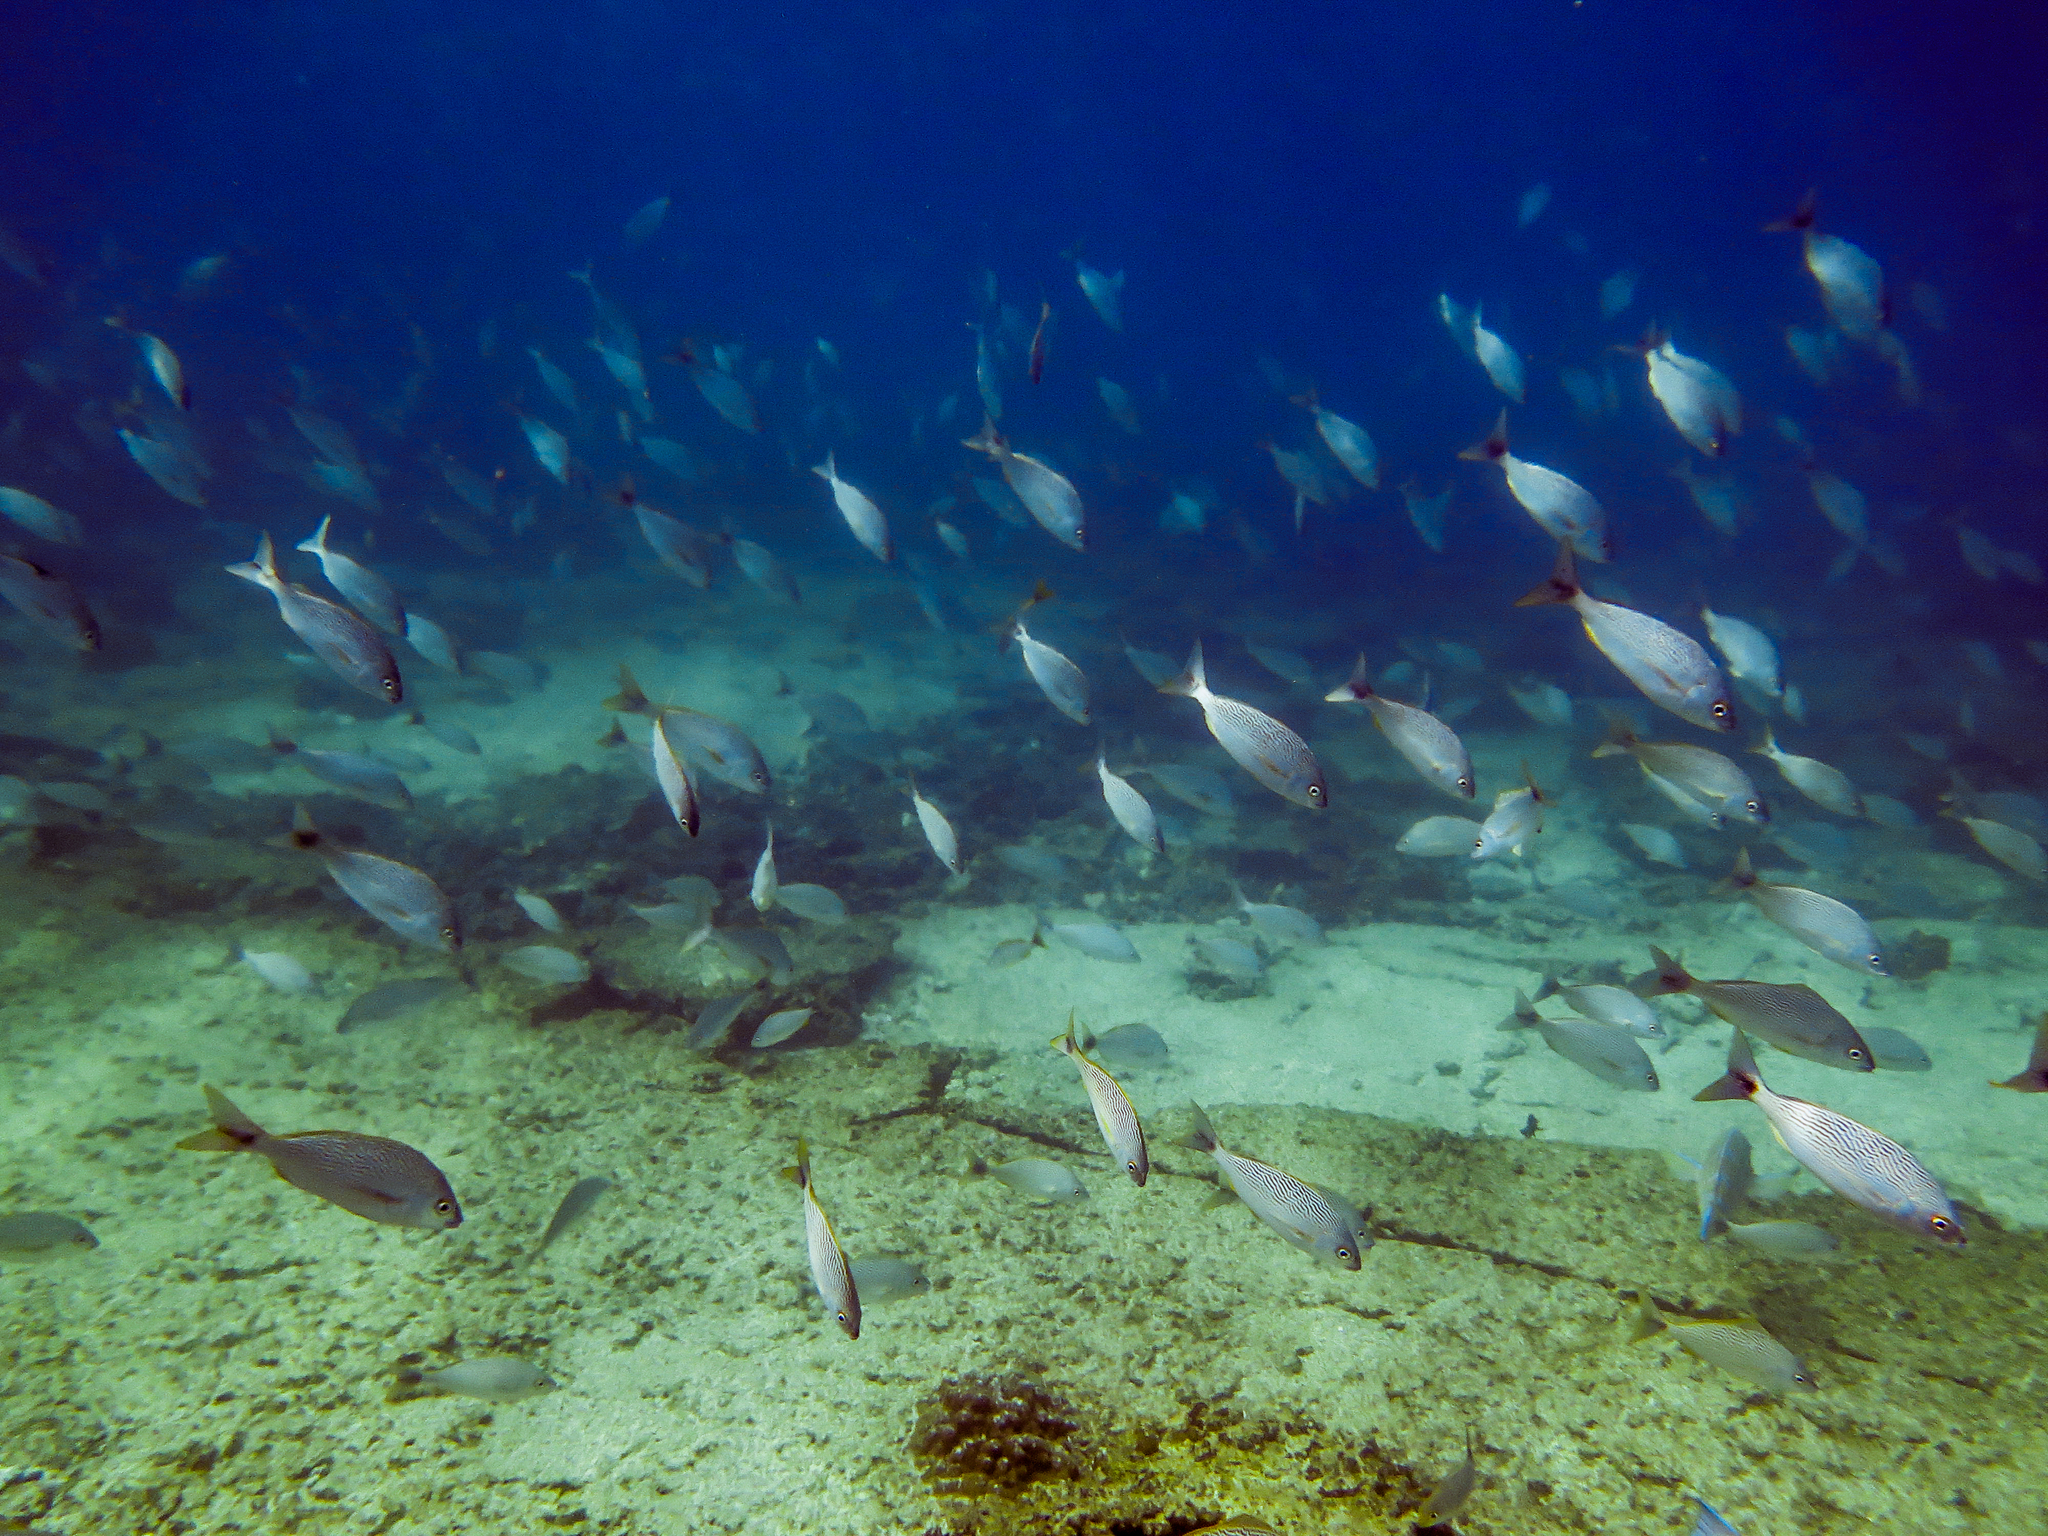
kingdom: Animalia
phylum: Chordata
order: Perciformes
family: Haemulidae
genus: Microlepidotus
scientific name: Microlepidotus brevipinnis
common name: Brassy grunt
